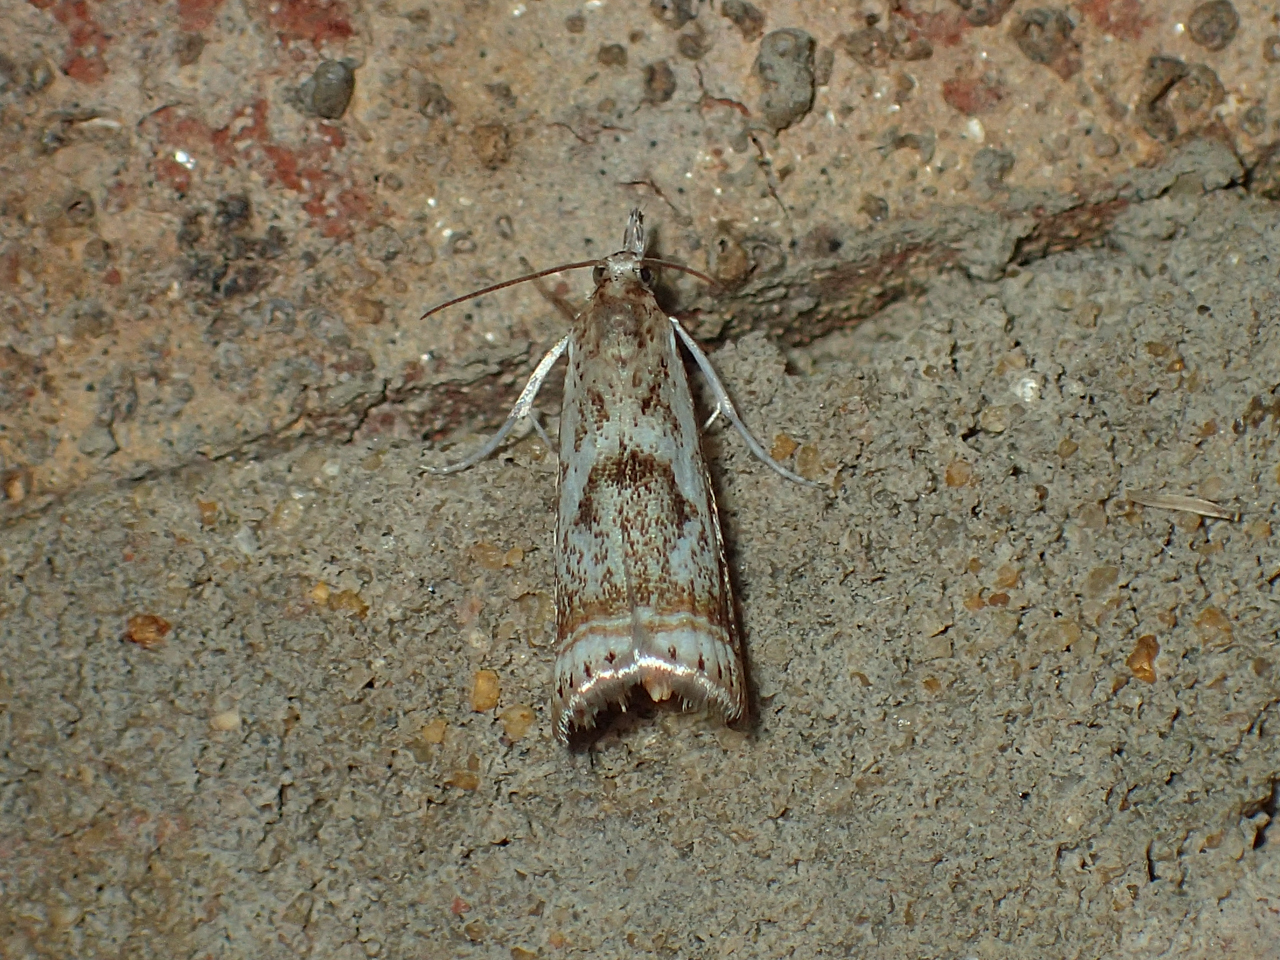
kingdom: Animalia
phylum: Arthropoda
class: Insecta
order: Lepidoptera
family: Crambidae
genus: Microcrambus
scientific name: Microcrambus elegans
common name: Elegant grass-veneer
